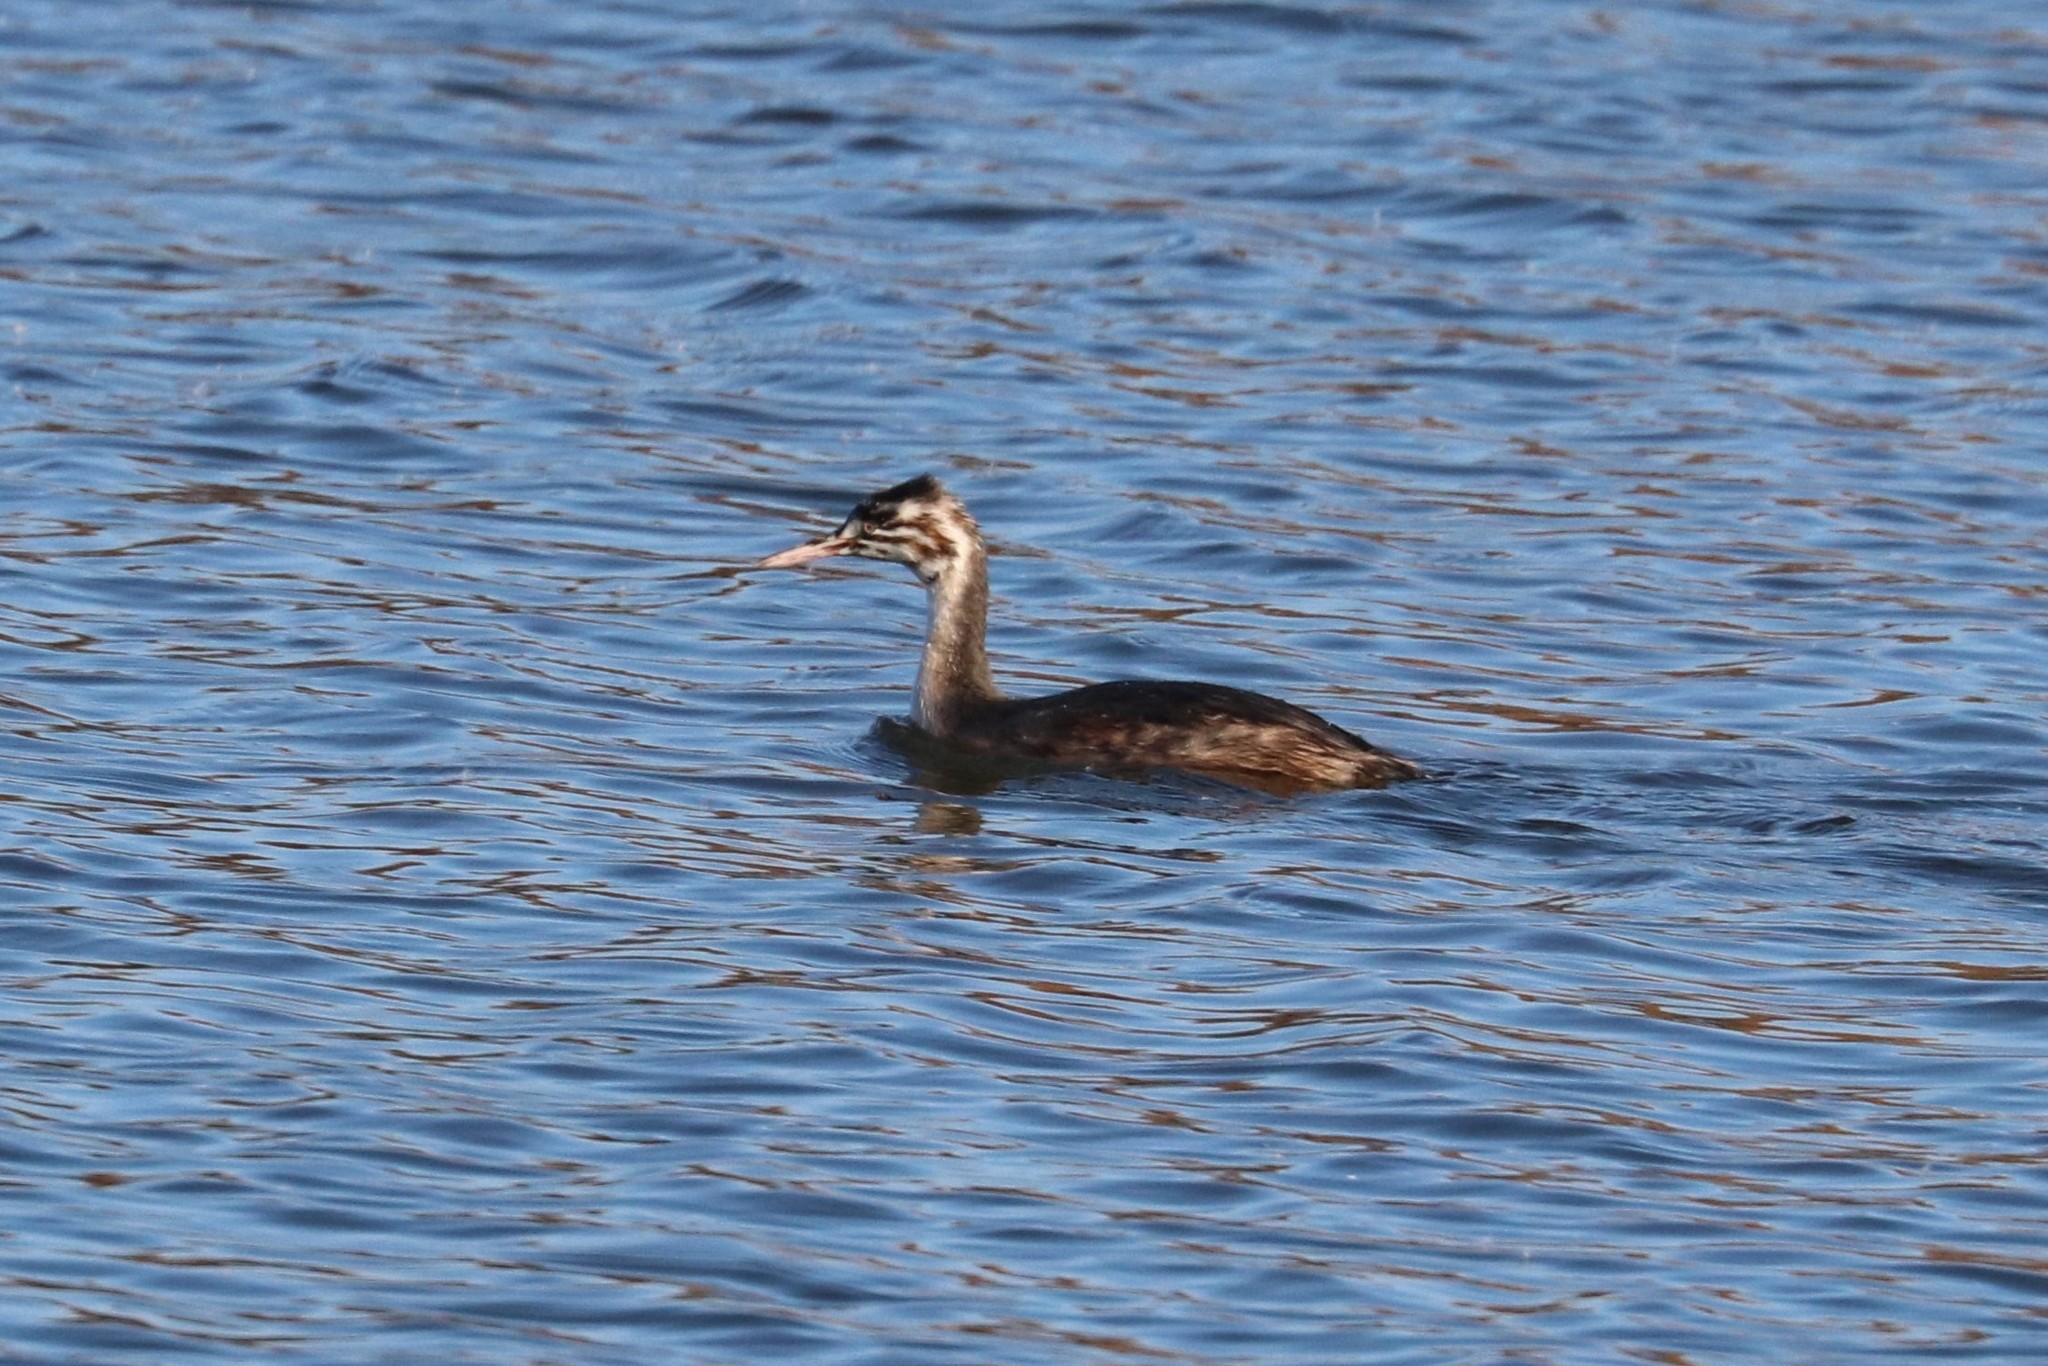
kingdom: Animalia
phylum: Chordata
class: Aves
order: Podicipediformes
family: Podicipedidae
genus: Podiceps
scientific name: Podiceps cristatus
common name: Great crested grebe
